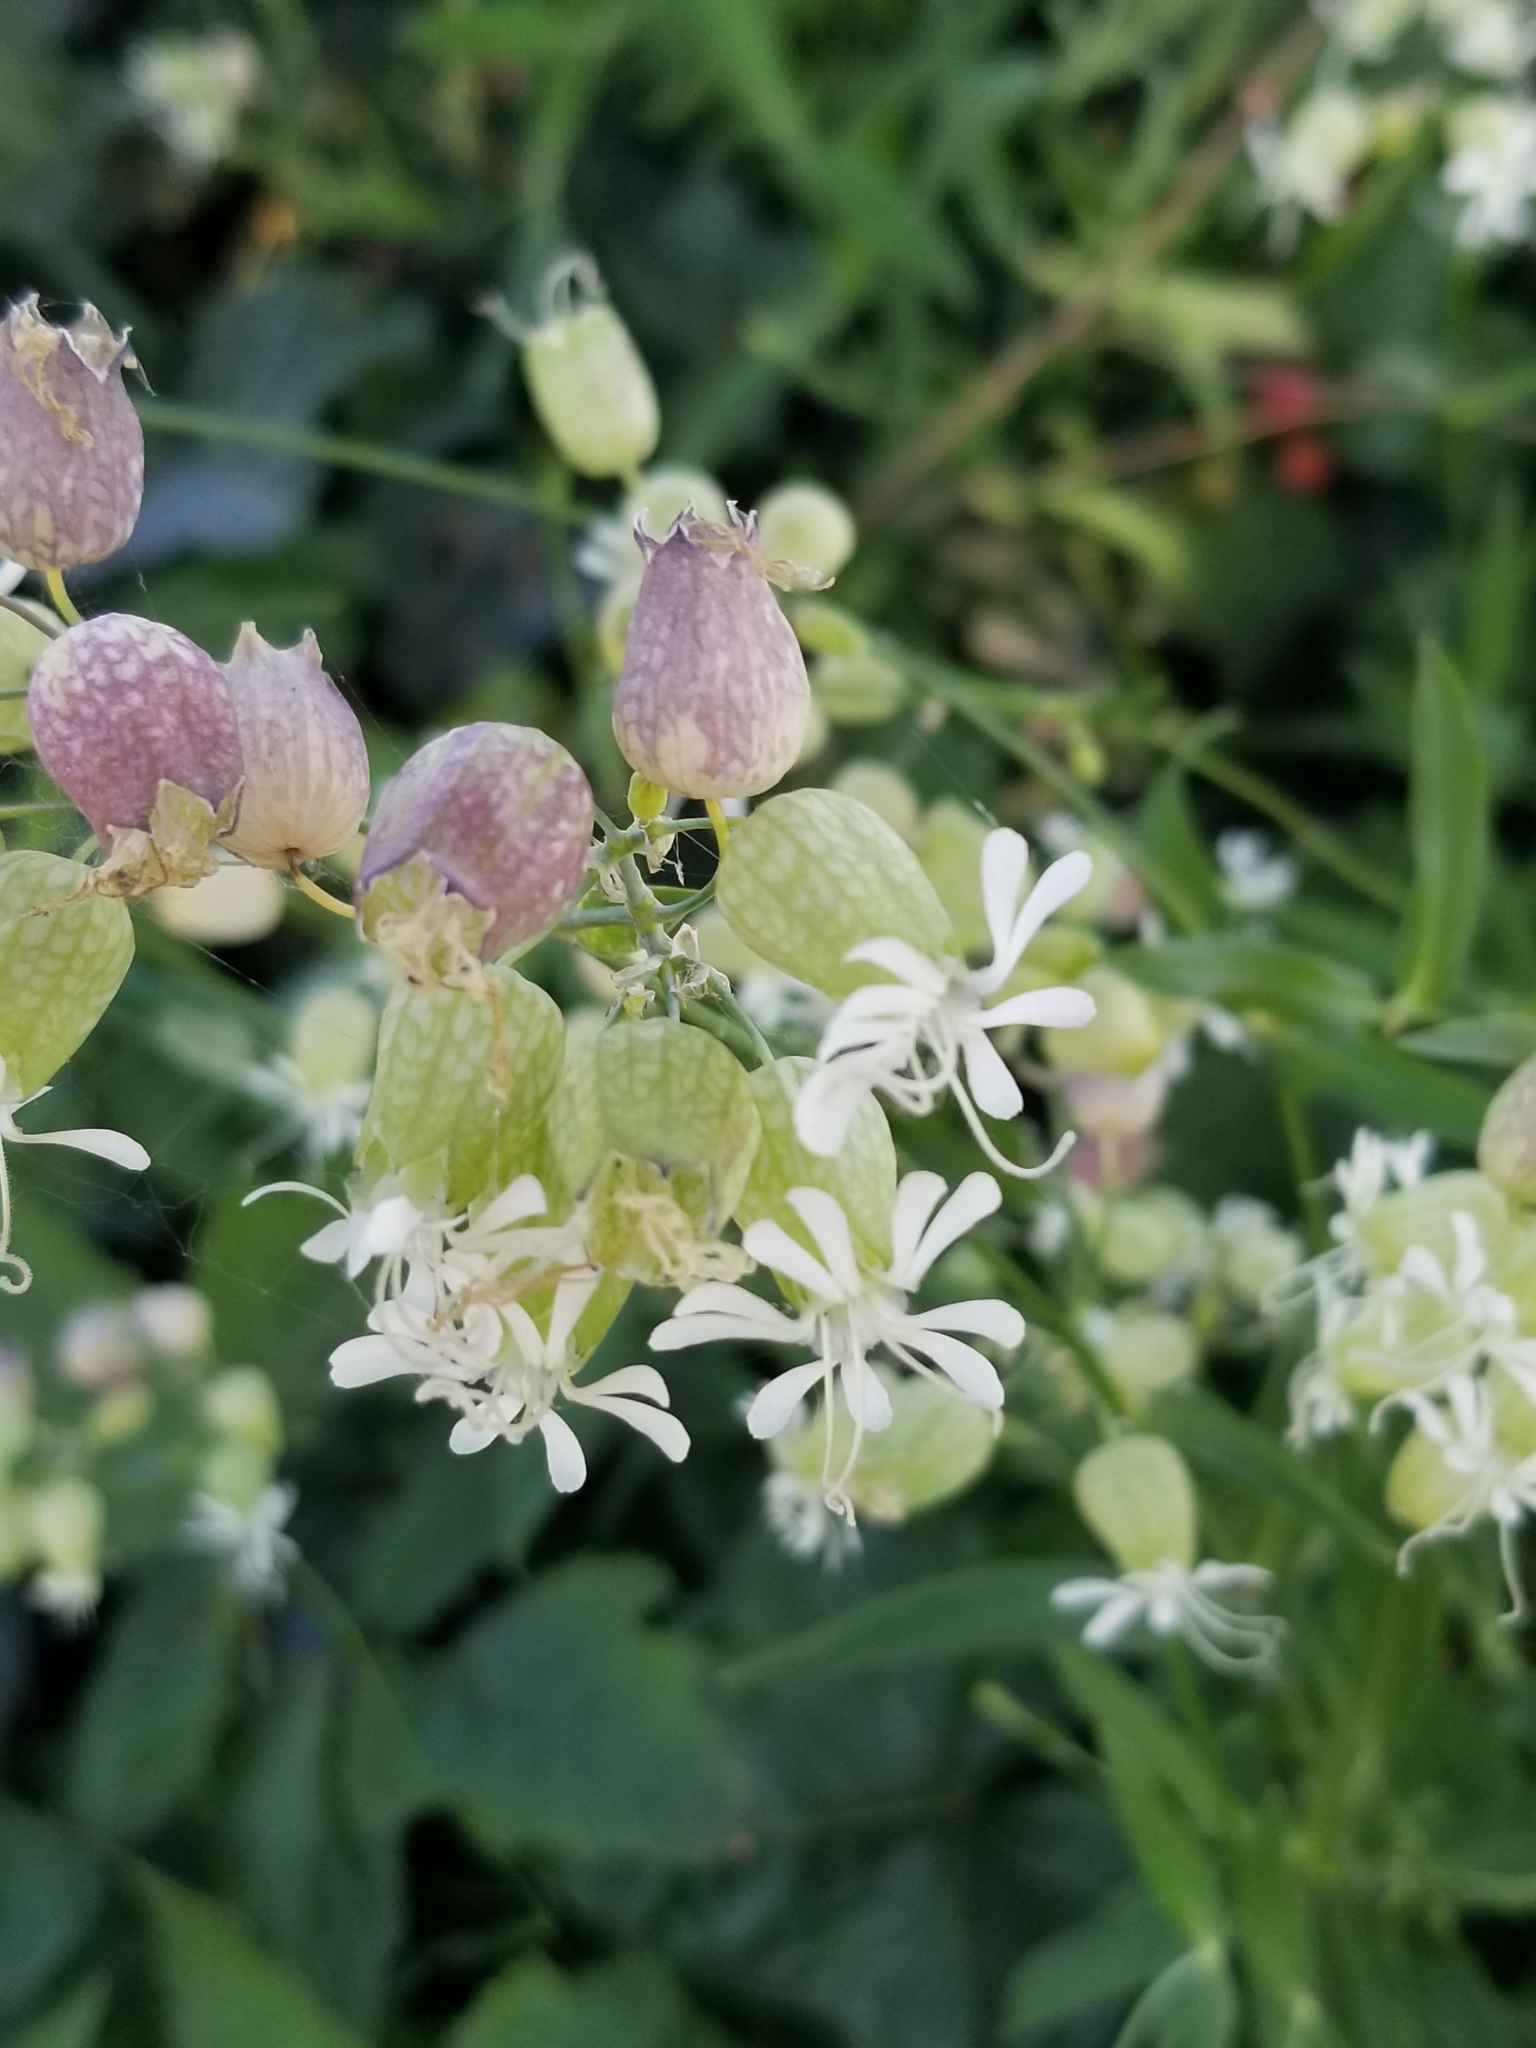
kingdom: Plantae
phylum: Tracheophyta
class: Magnoliopsida
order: Caryophyllales
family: Caryophyllaceae
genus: Silene
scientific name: Silene vulgaris
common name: Bladder campion
